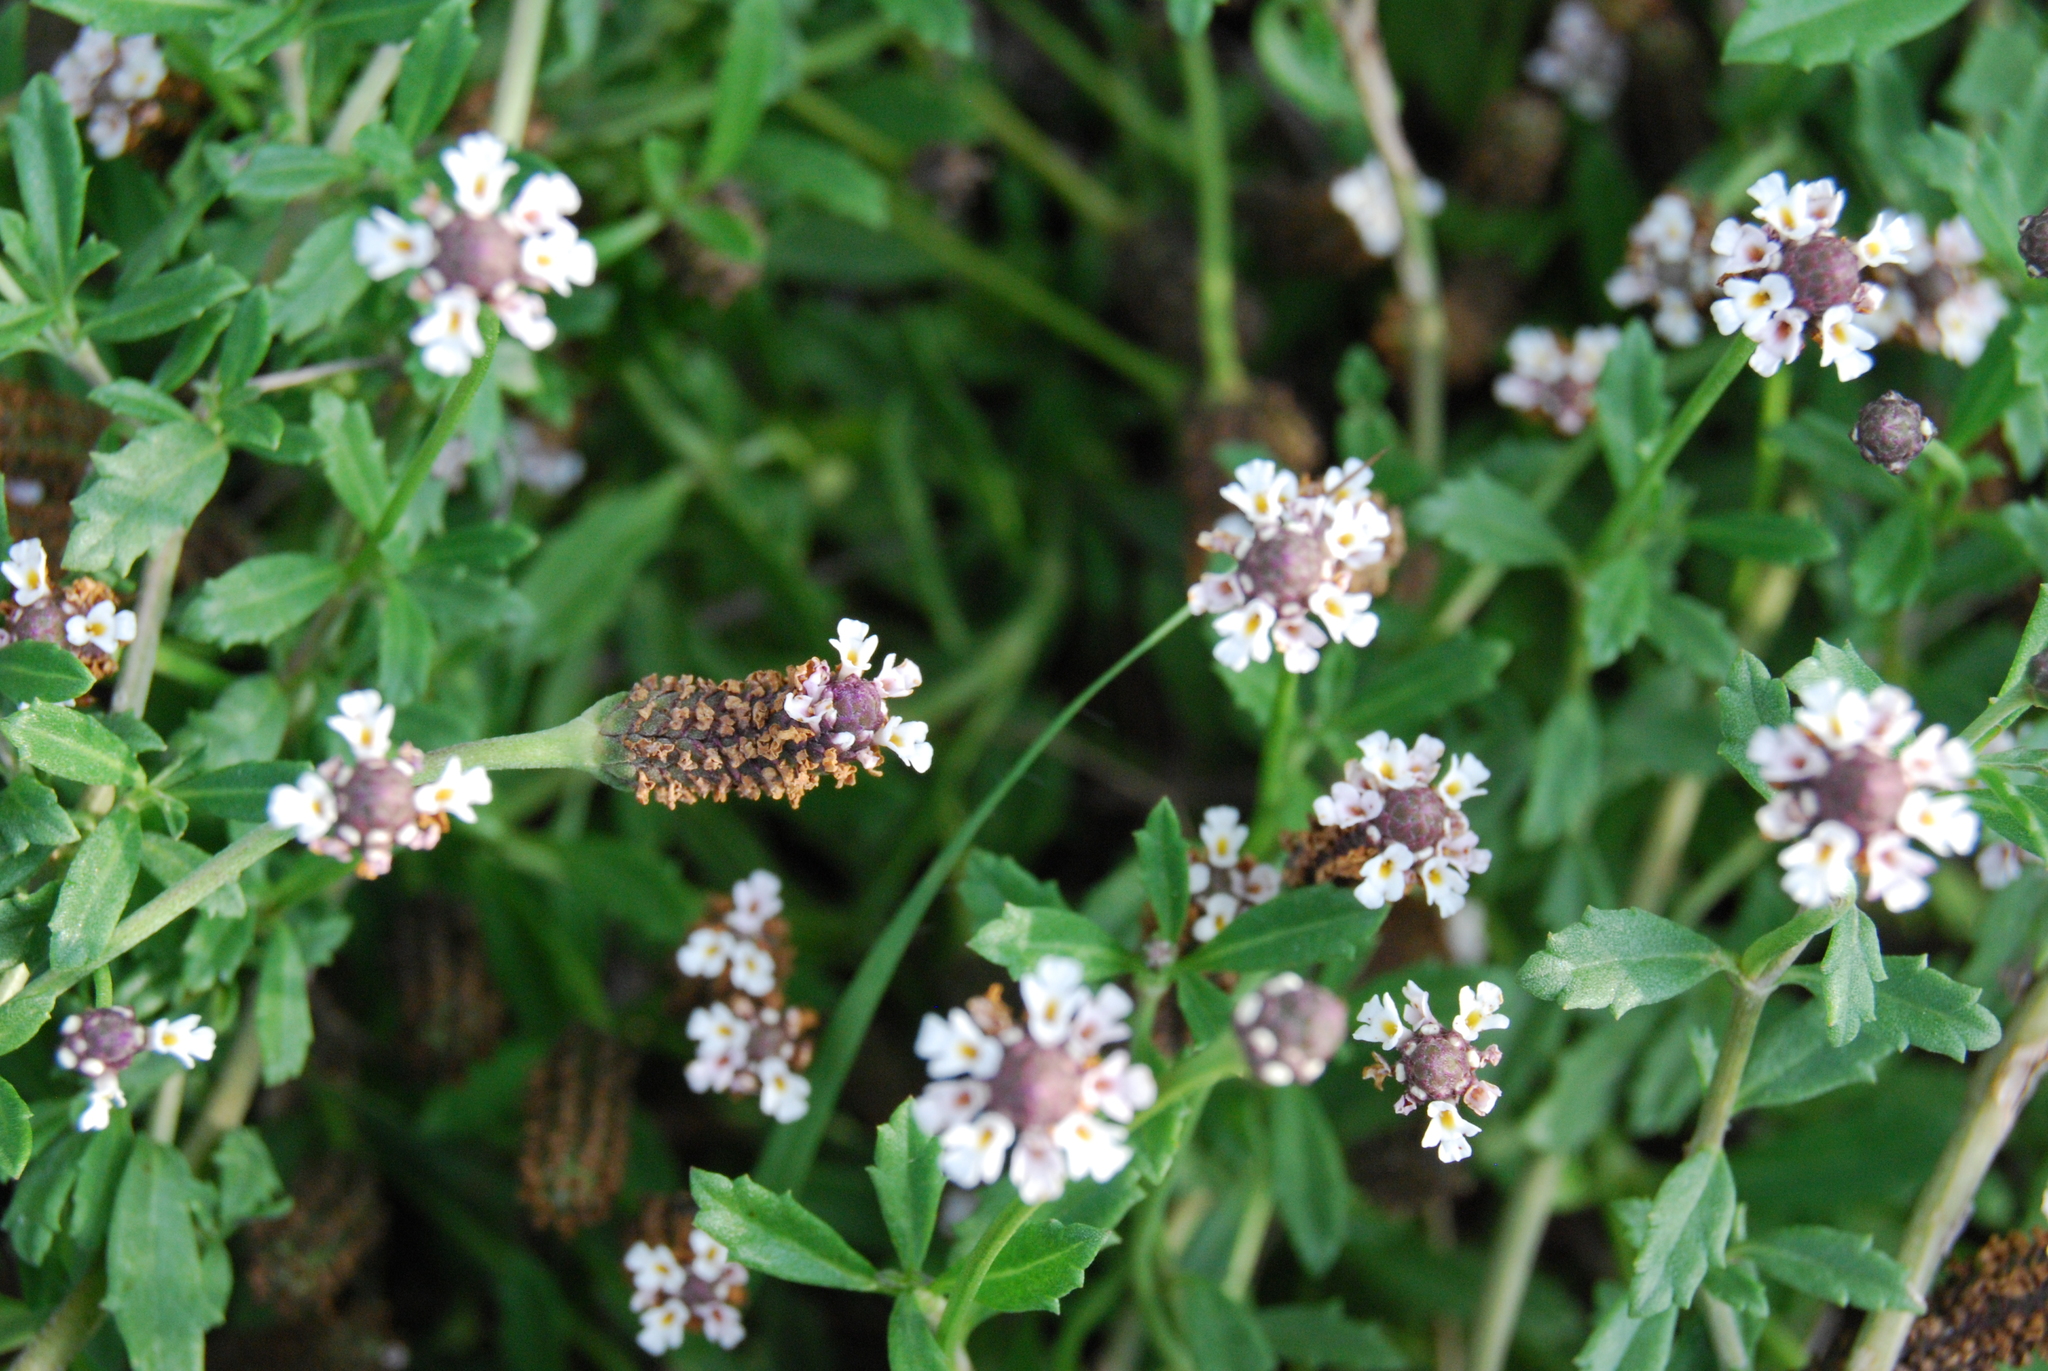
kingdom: Plantae
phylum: Tracheophyta
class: Magnoliopsida
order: Lamiales
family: Verbenaceae
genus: Phyla
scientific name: Phyla nodiflora
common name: Frogfruit
